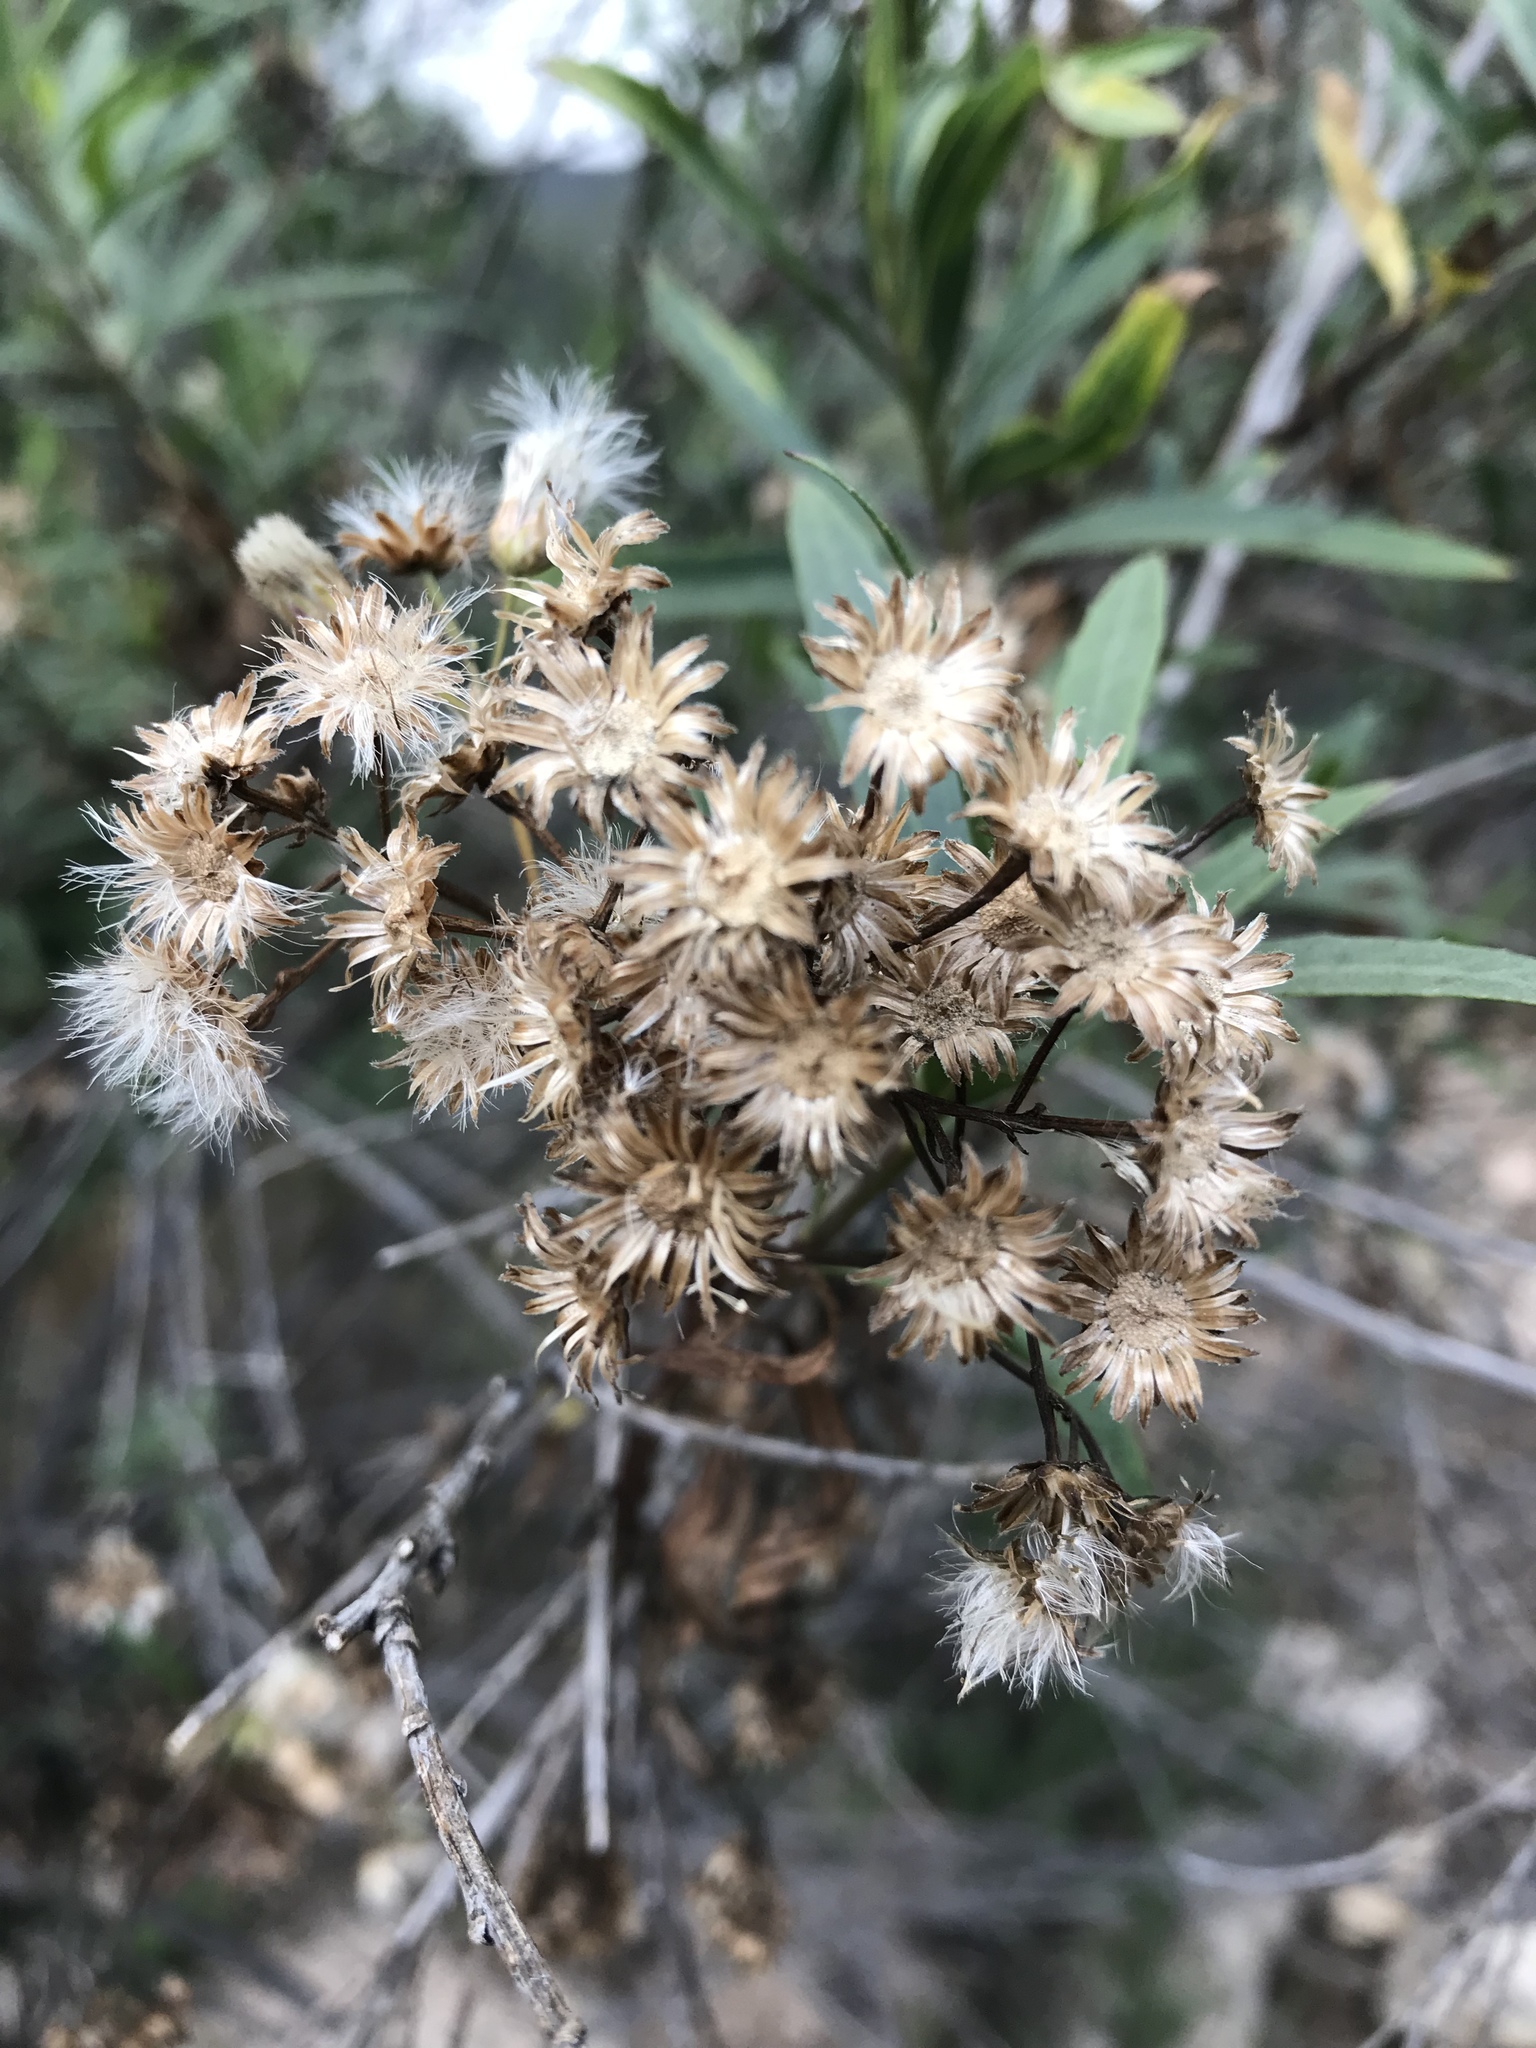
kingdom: Plantae
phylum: Tracheophyta
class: Magnoliopsida
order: Asterales
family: Asteraceae
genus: Baccharis
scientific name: Baccharis salicifolia
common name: Sticky baccharis
